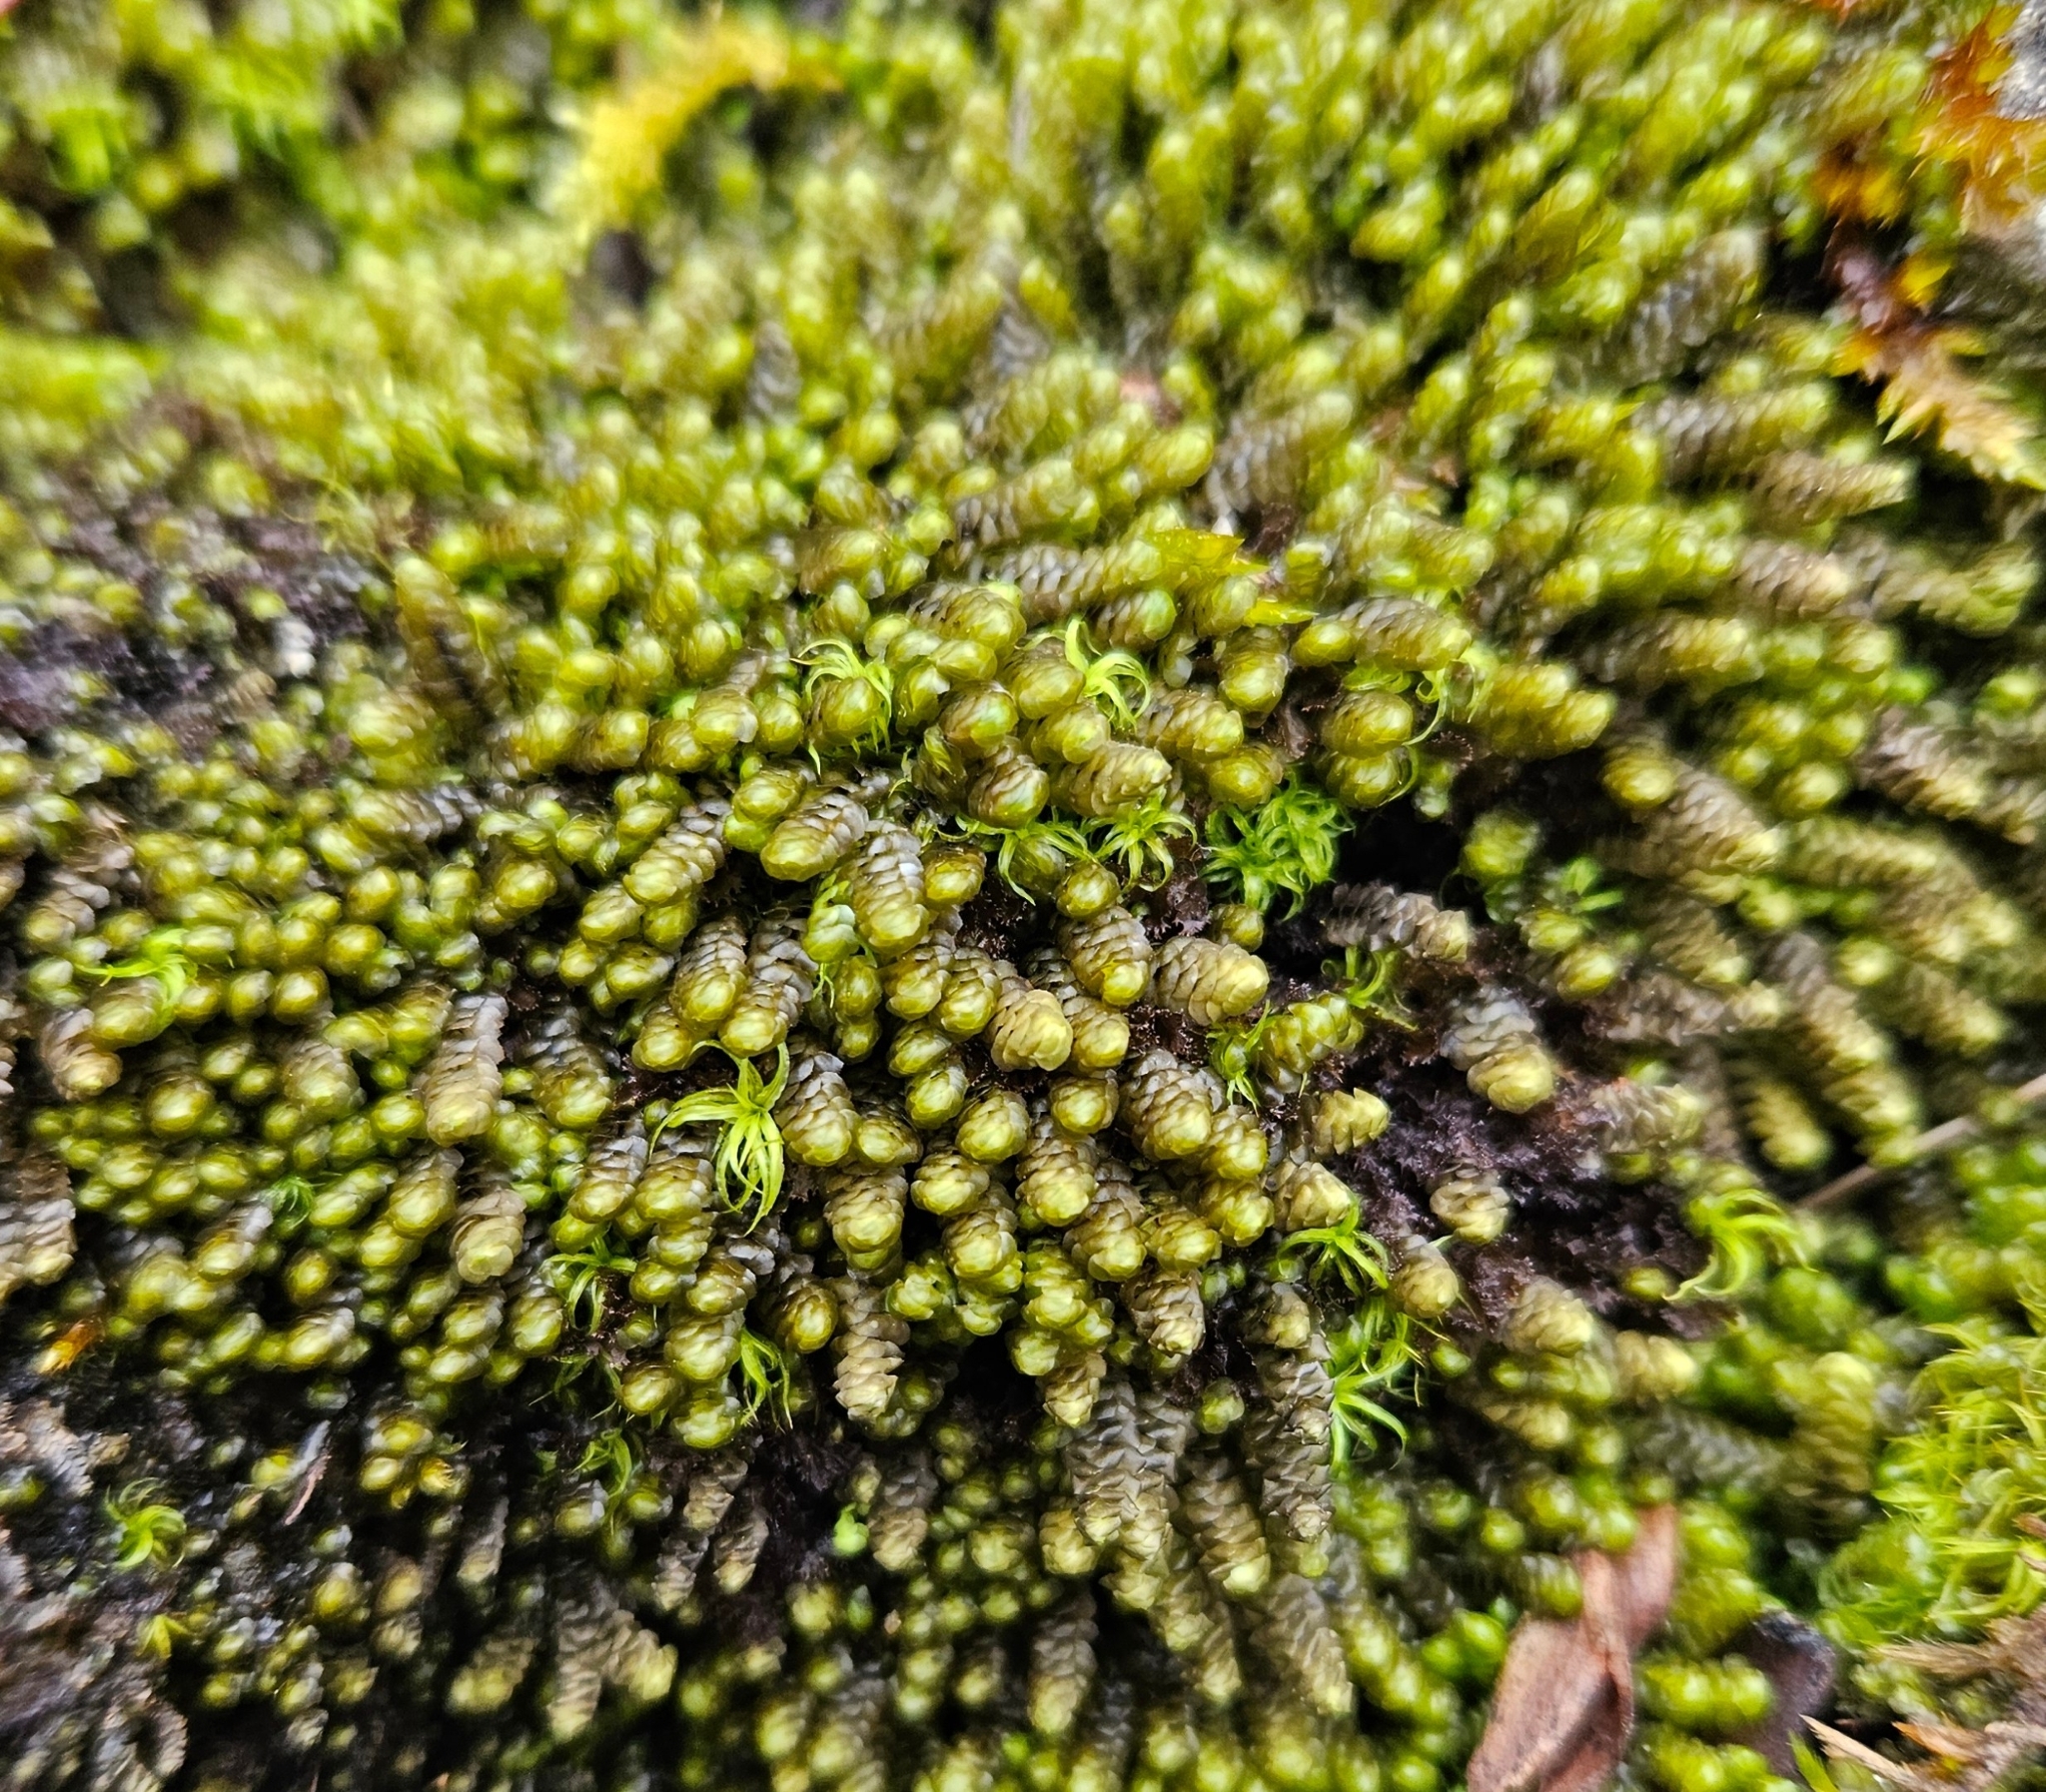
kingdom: Plantae
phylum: Marchantiophyta
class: Jungermanniopsida
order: Jungermanniales
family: Scapaniaceae
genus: Scapania
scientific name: Scapania aspera
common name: Rough earwort
